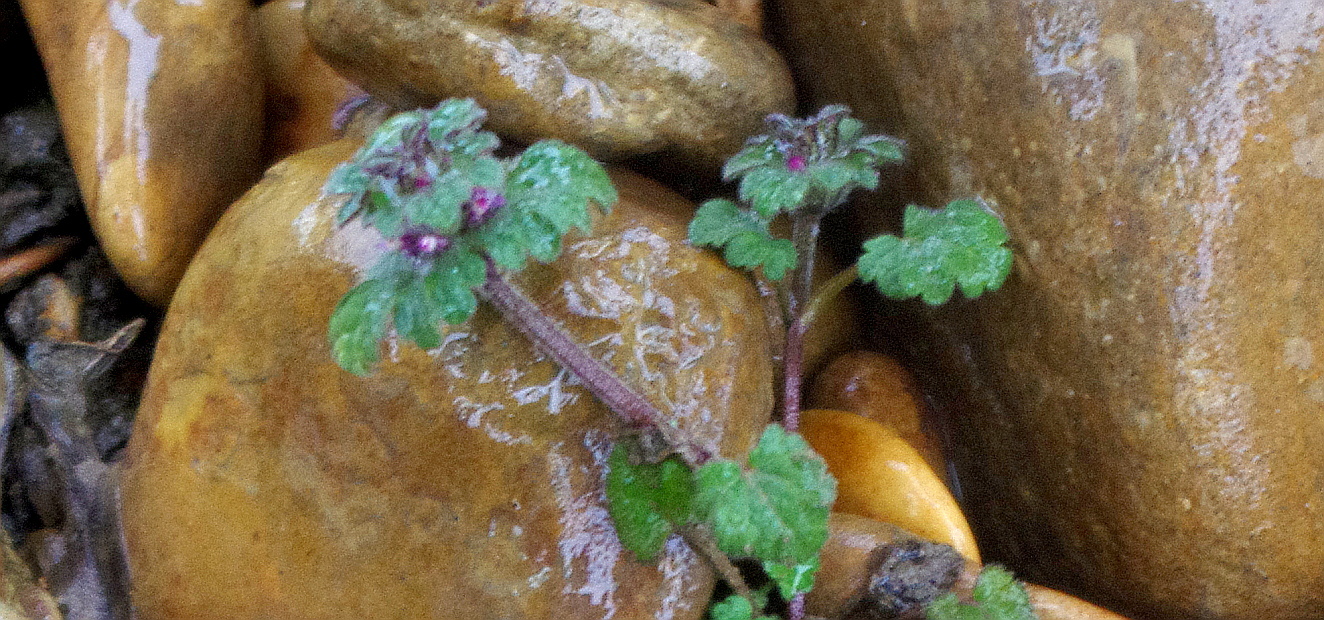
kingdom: Plantae
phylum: Tracheophyta
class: Magnoliopsida
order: Lamiales
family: Lamiaceae
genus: Lamium
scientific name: Lamium amplexicaule
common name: Henbit dead-nettle
